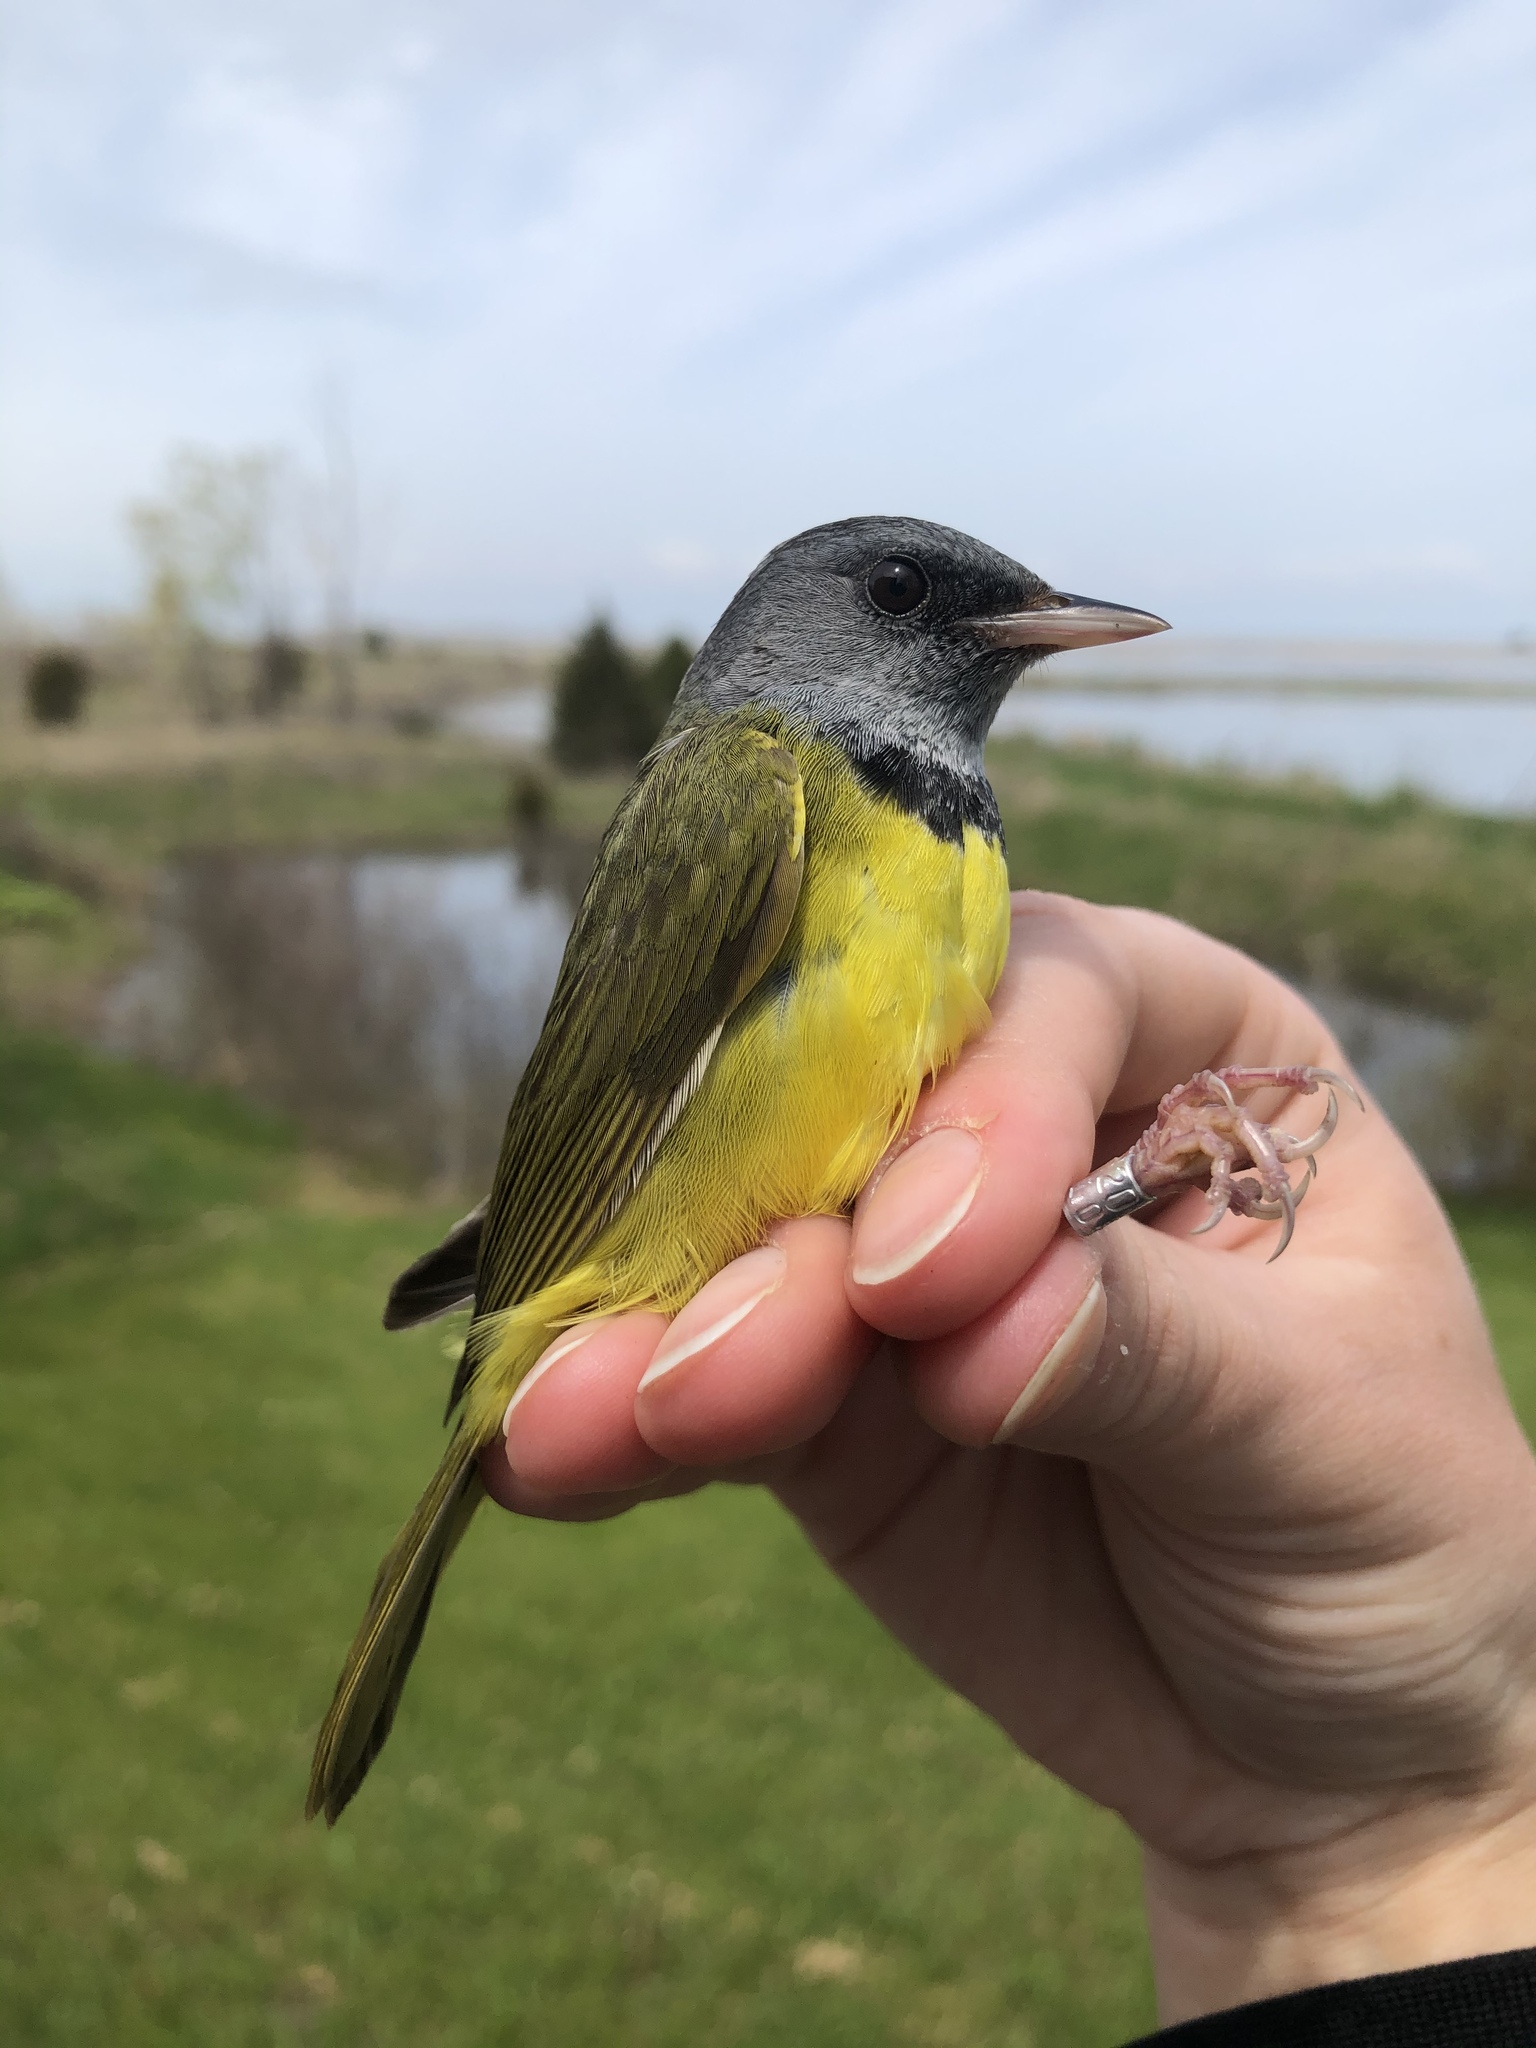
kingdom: Animalia
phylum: Chordata
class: Aves
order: Passeriformes
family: Parulidae
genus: Geothlypis
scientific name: Geothlypis philadelphia
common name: Mourning warbler
